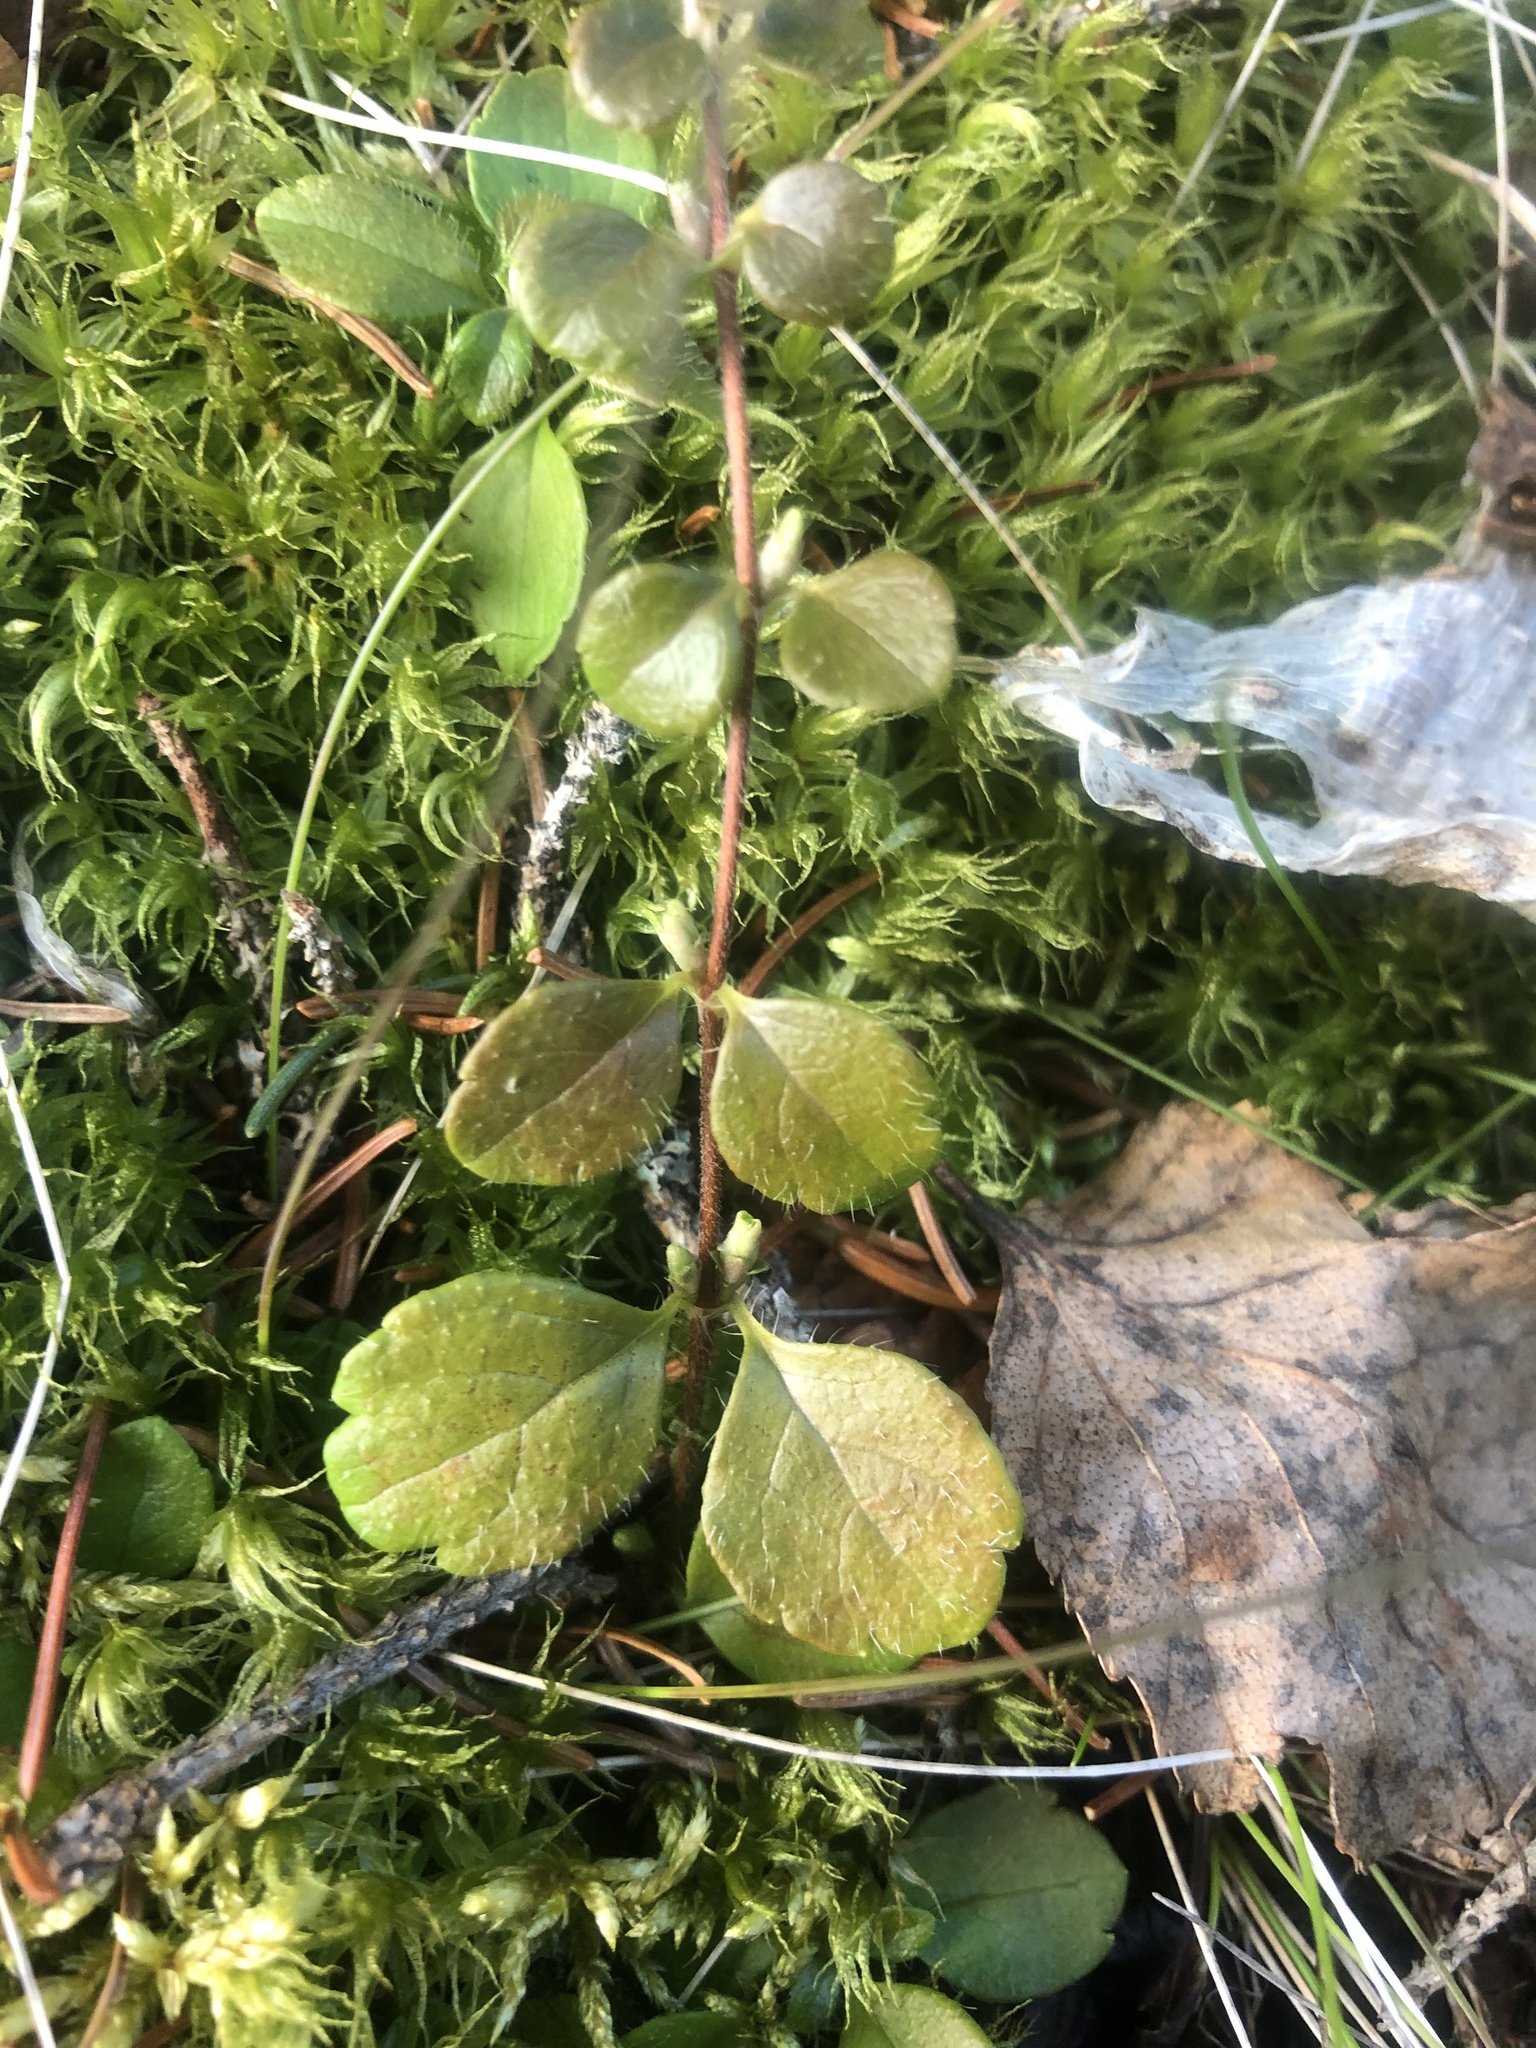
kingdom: Plantae
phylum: Tracheophyta
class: Magnoliopsida
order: Dipsacales
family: Caprifoliaceae
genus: Linnaea
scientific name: Linnaea borealis
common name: Twinflower
